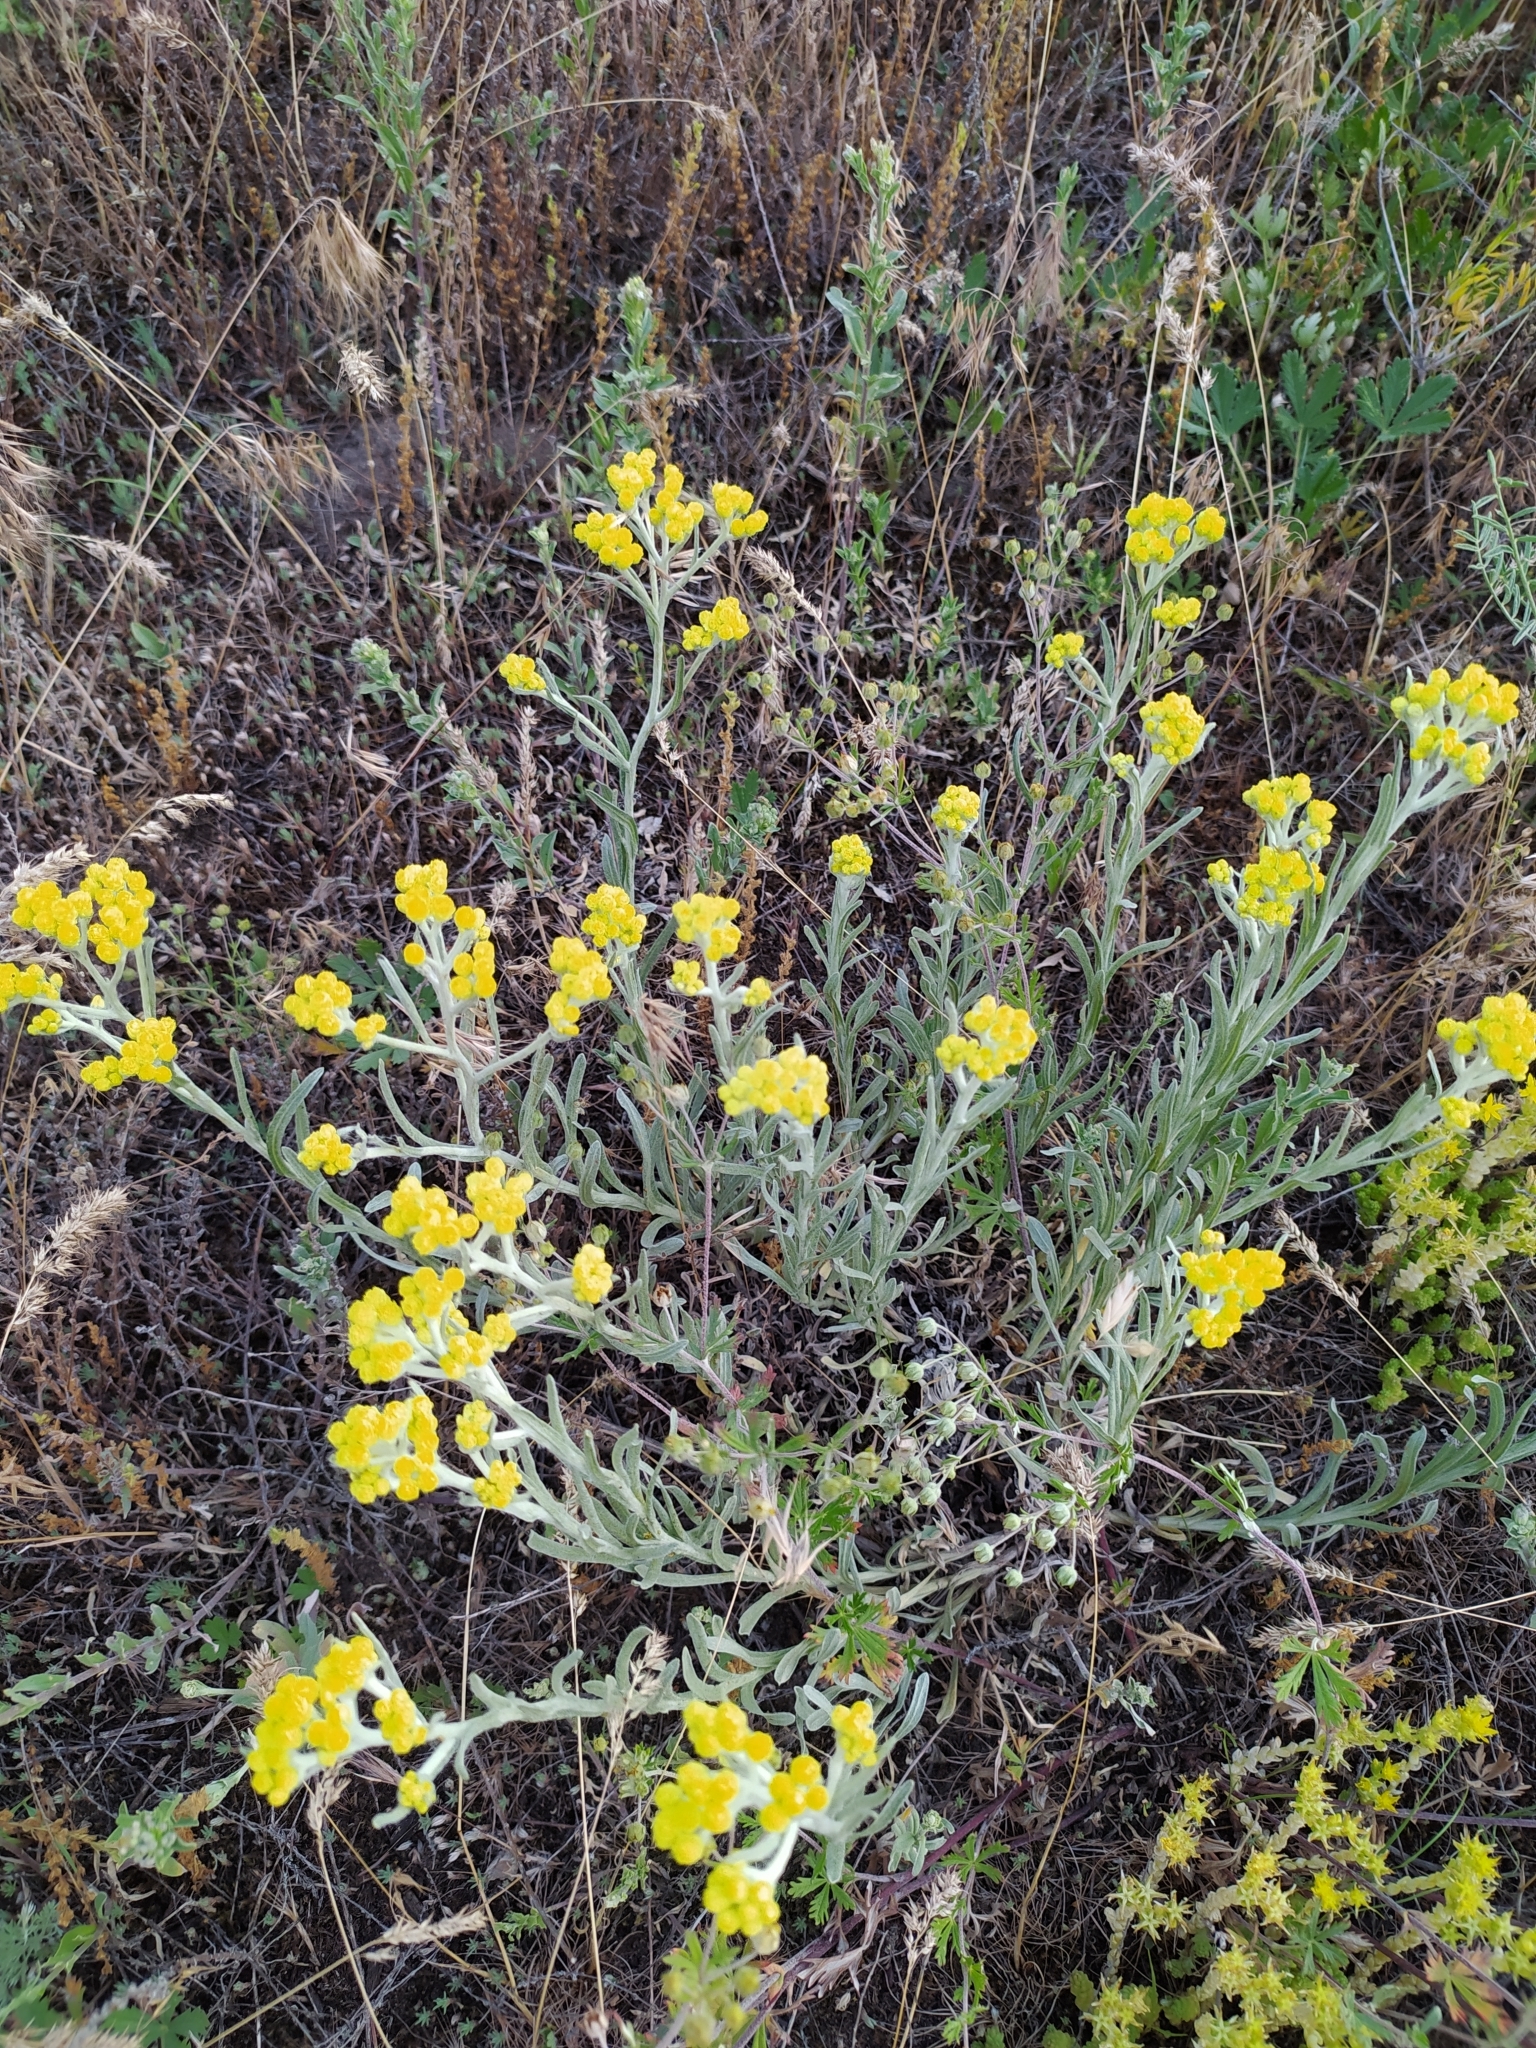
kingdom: Plantae
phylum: Tracheophyta
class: Magnoliopsida
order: Asterales
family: Asteraceae
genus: Helichrysum
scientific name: Helichrysum arenarium
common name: Strawflower
